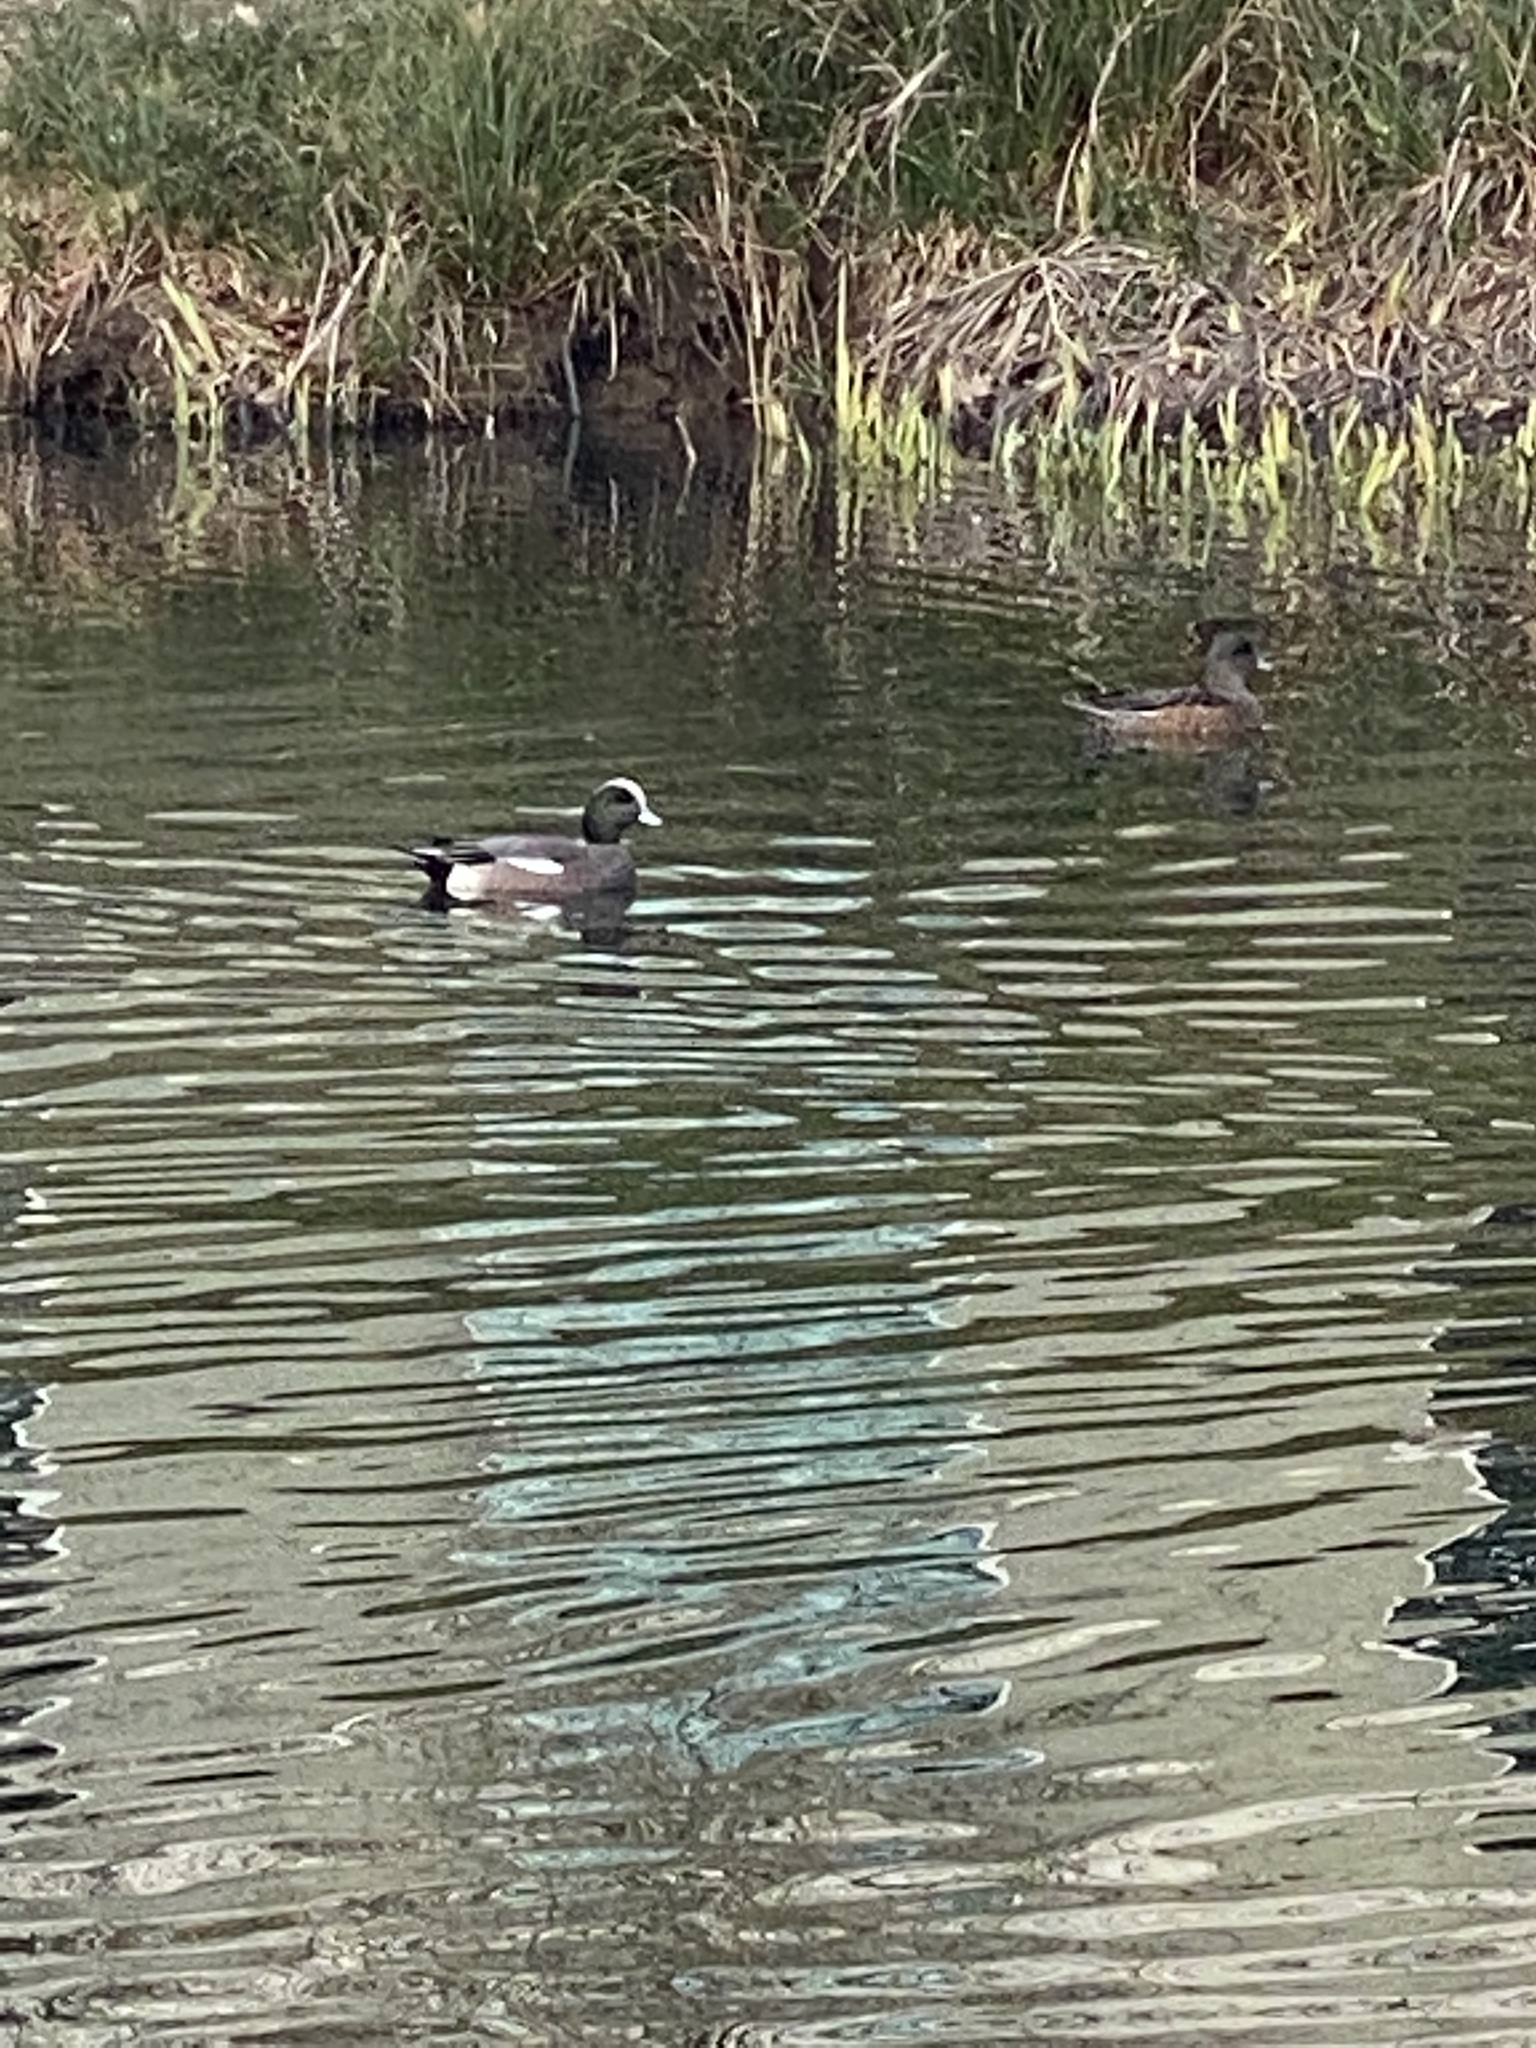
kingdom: Animalia
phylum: Chordata
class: Aves
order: Anseriformes
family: Anatidae
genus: Mareca
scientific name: Mareca americana
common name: American wigeon
